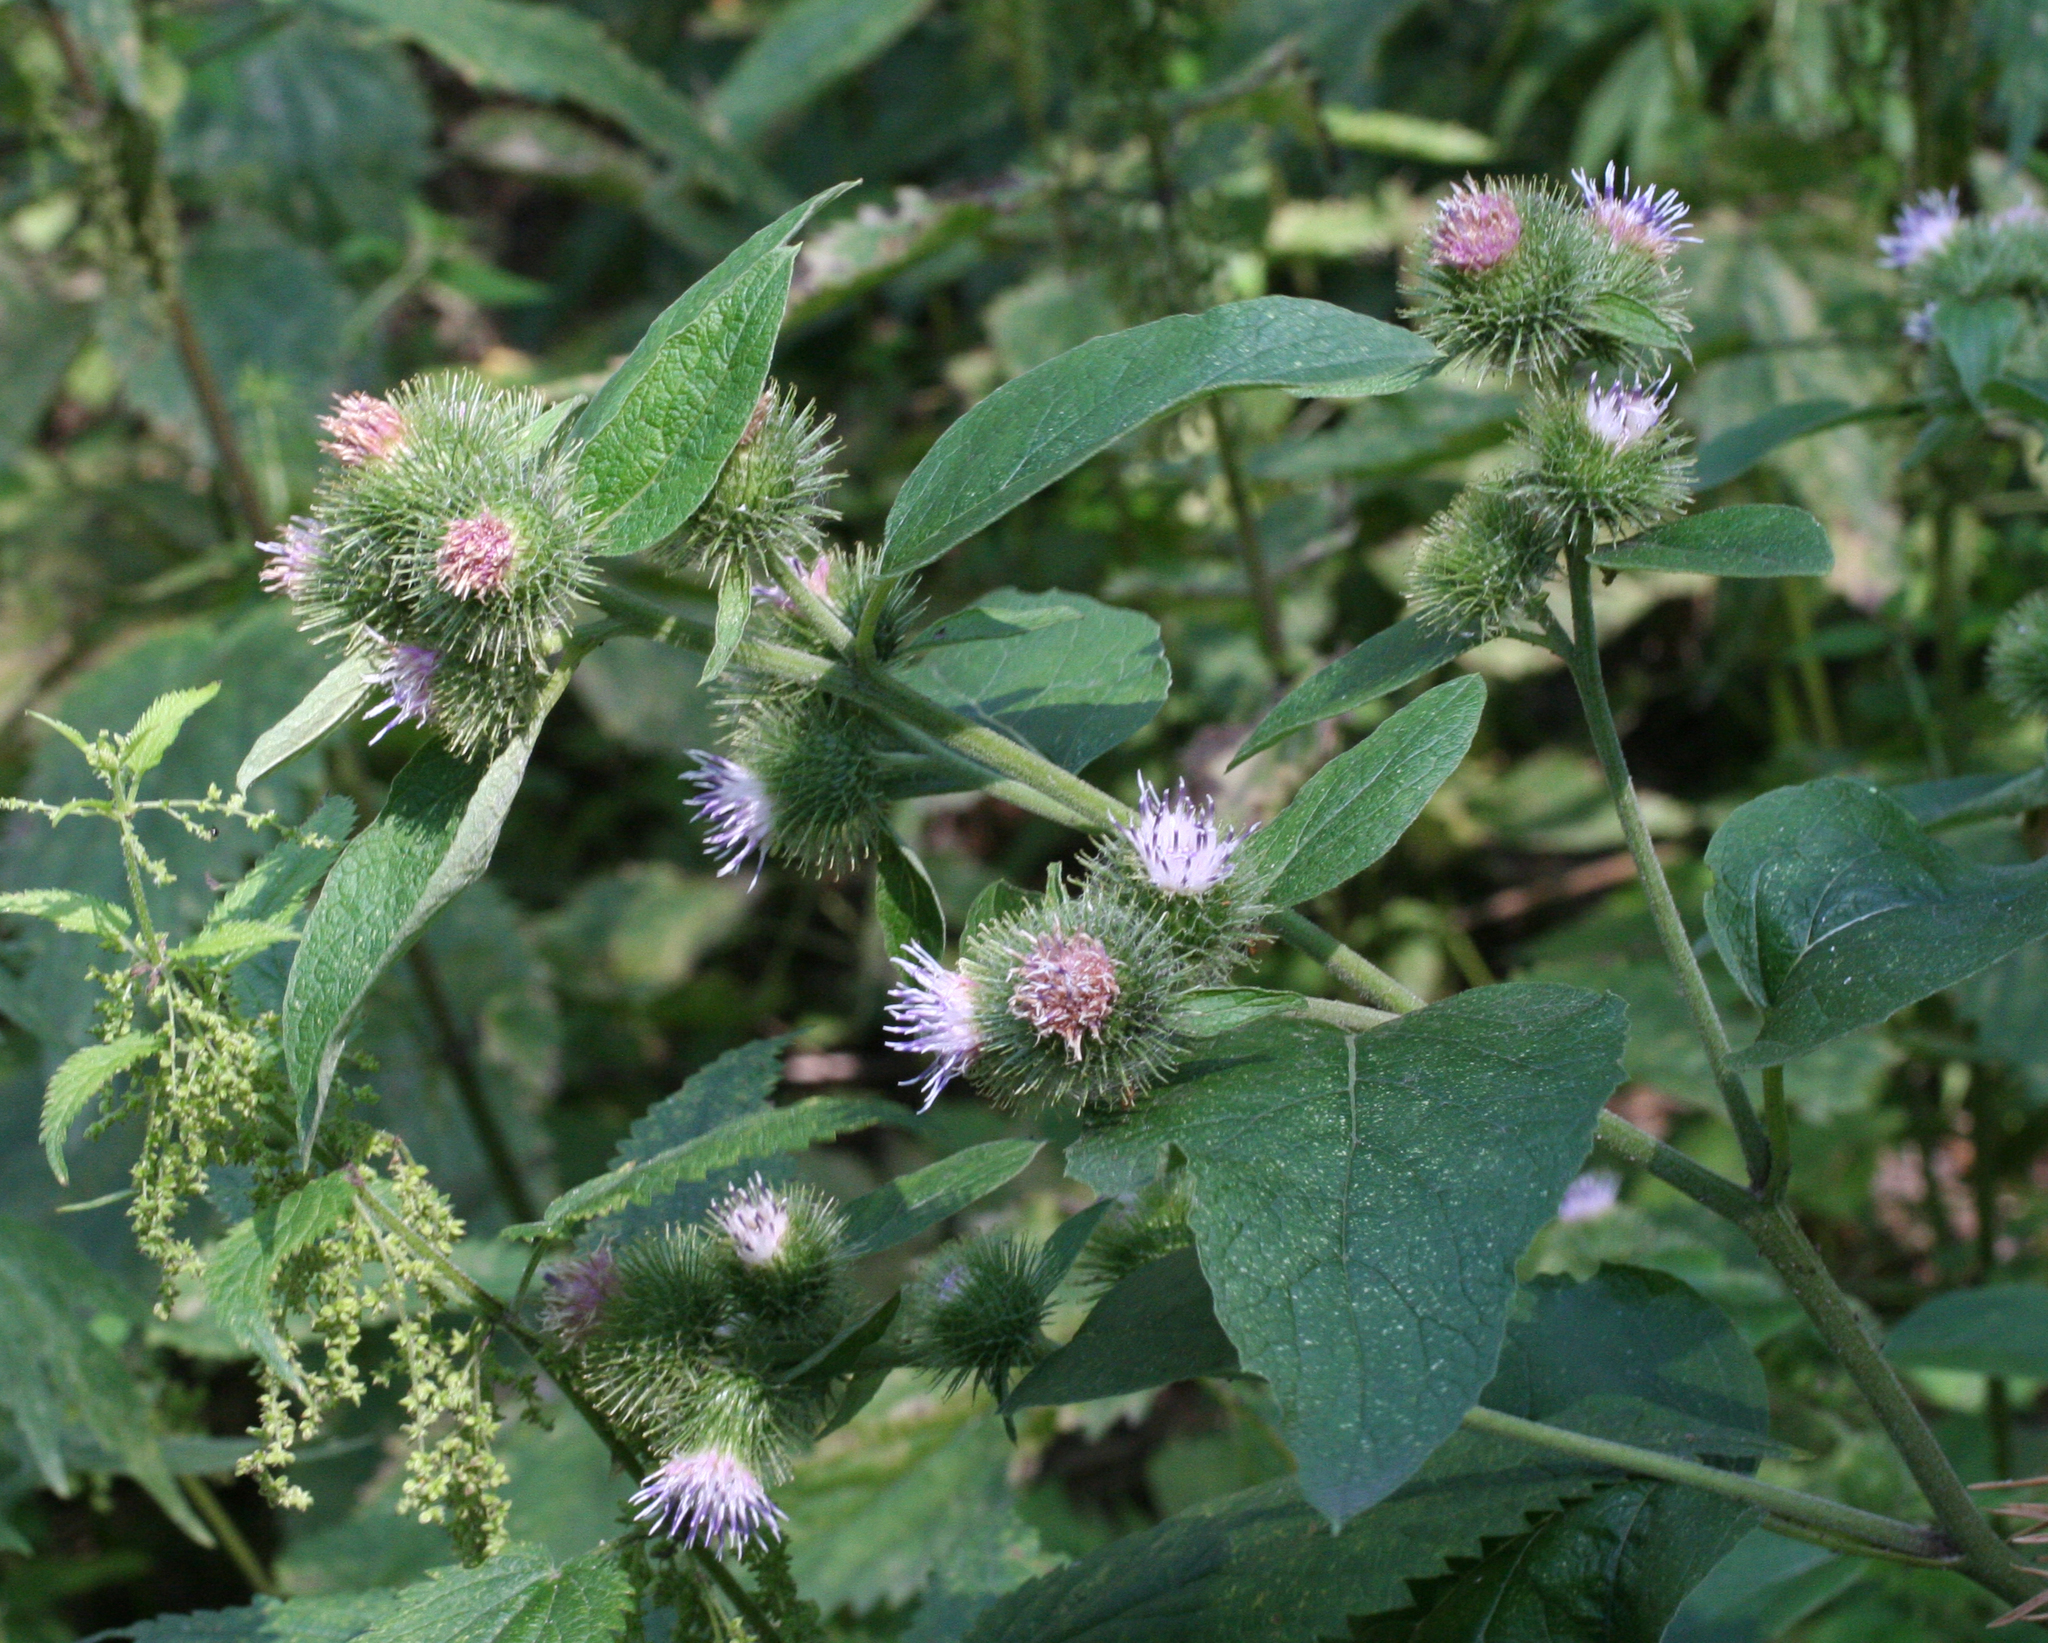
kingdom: Plantae
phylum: Tracheophyta
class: Magnoliopsida
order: Asterales
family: Asteraceae
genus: Arctium
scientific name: Arctium
